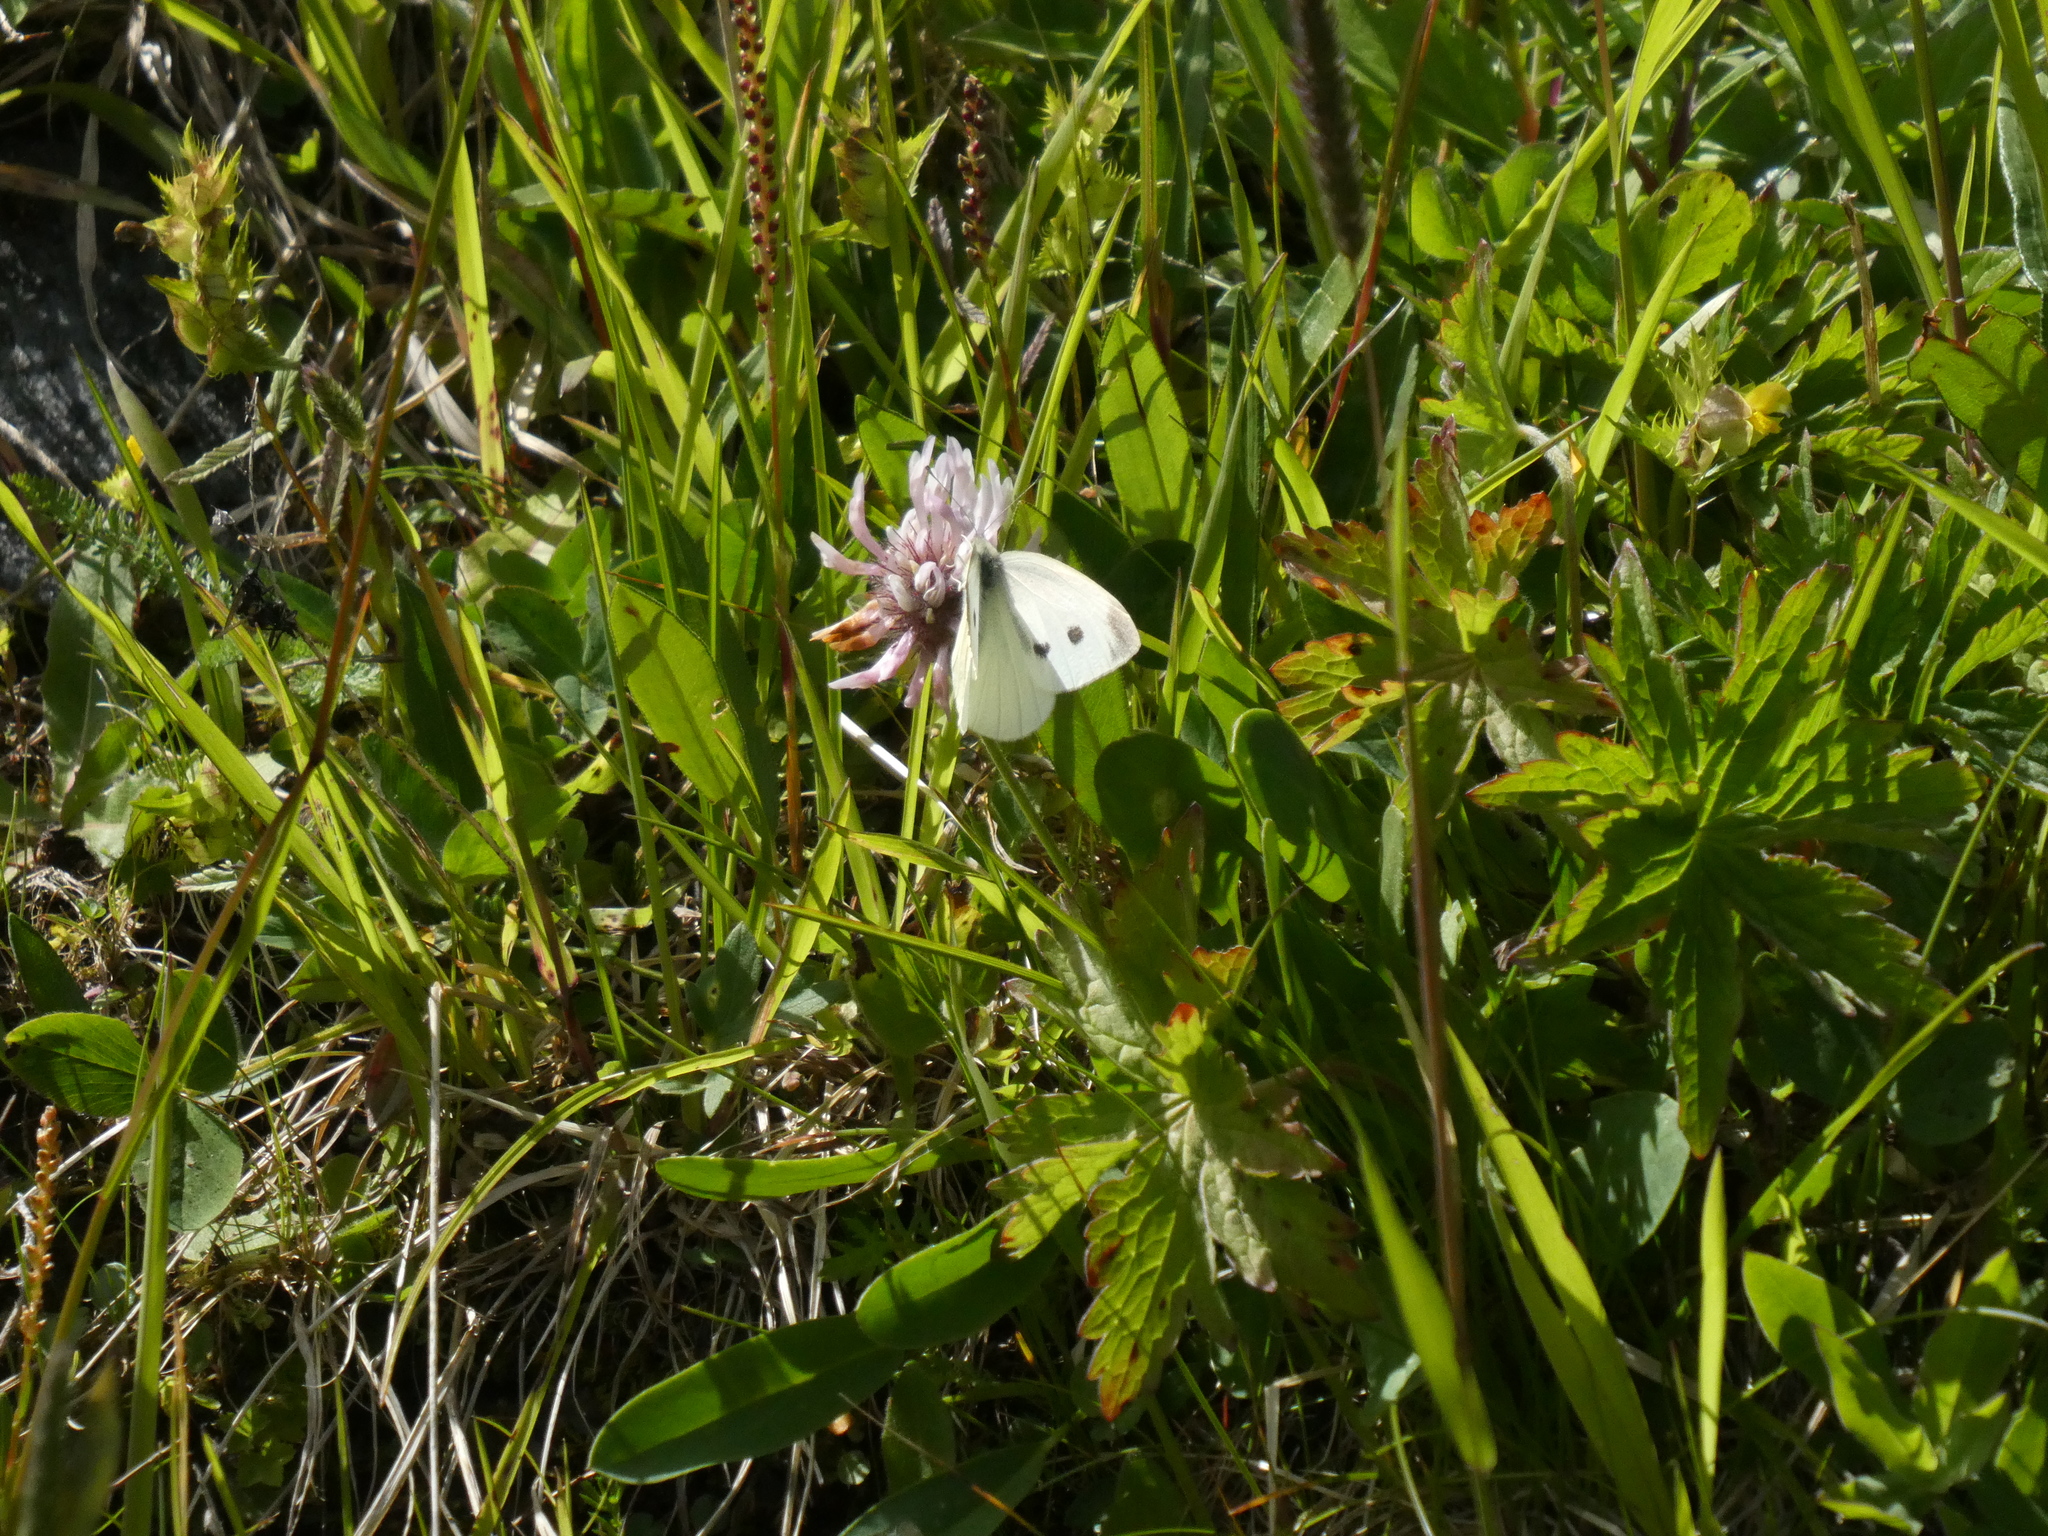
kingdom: Animalia
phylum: Arthropoda
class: Insecta
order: Lepidoptera
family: Pieridae
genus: Pieris
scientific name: Pieris rapae
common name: Small white
